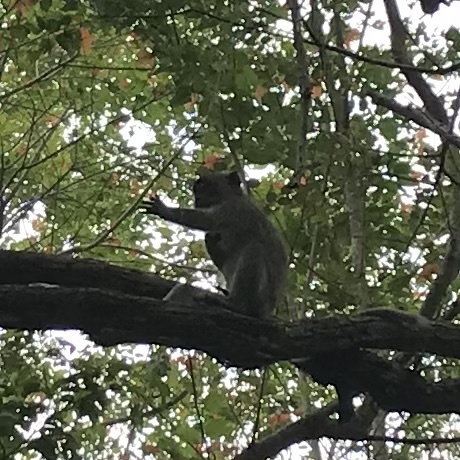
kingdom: Animalia
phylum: Chordata
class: Mammalia
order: Primates
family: Cercopithecidae
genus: Macaca
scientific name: Macaca fascicularis
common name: Crab-eating macaque
